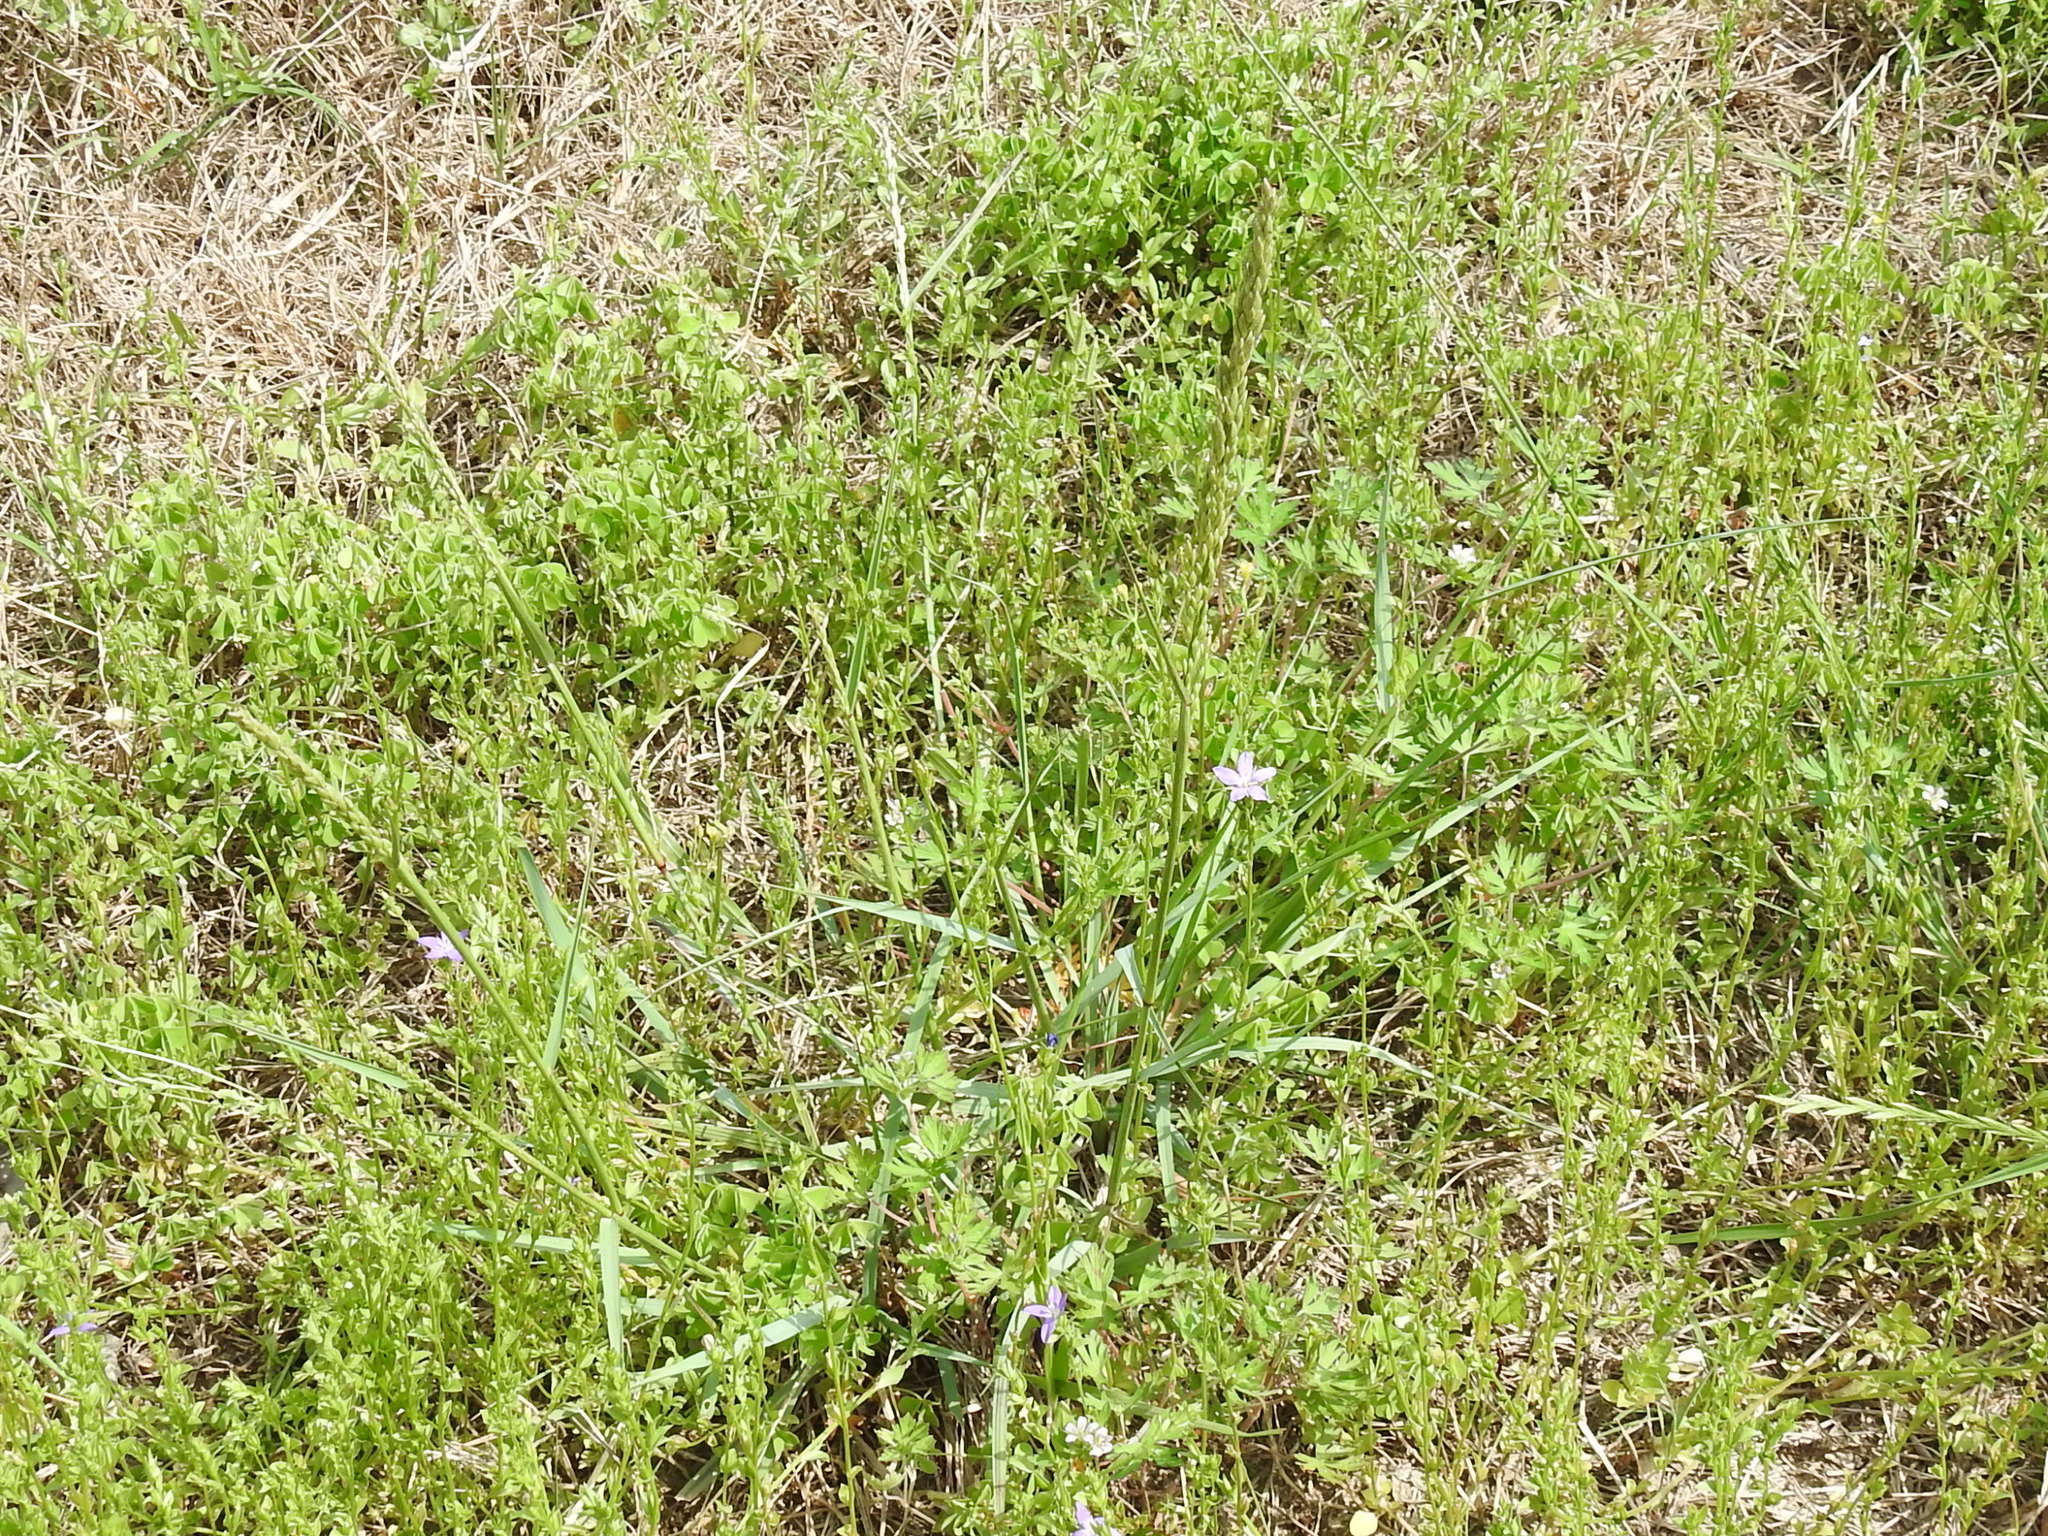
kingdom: Plantae
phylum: Tracheophyta
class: Liliopsida
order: Poales
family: Poaceae
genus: Tridens
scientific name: Tridens albescens
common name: White tridens
